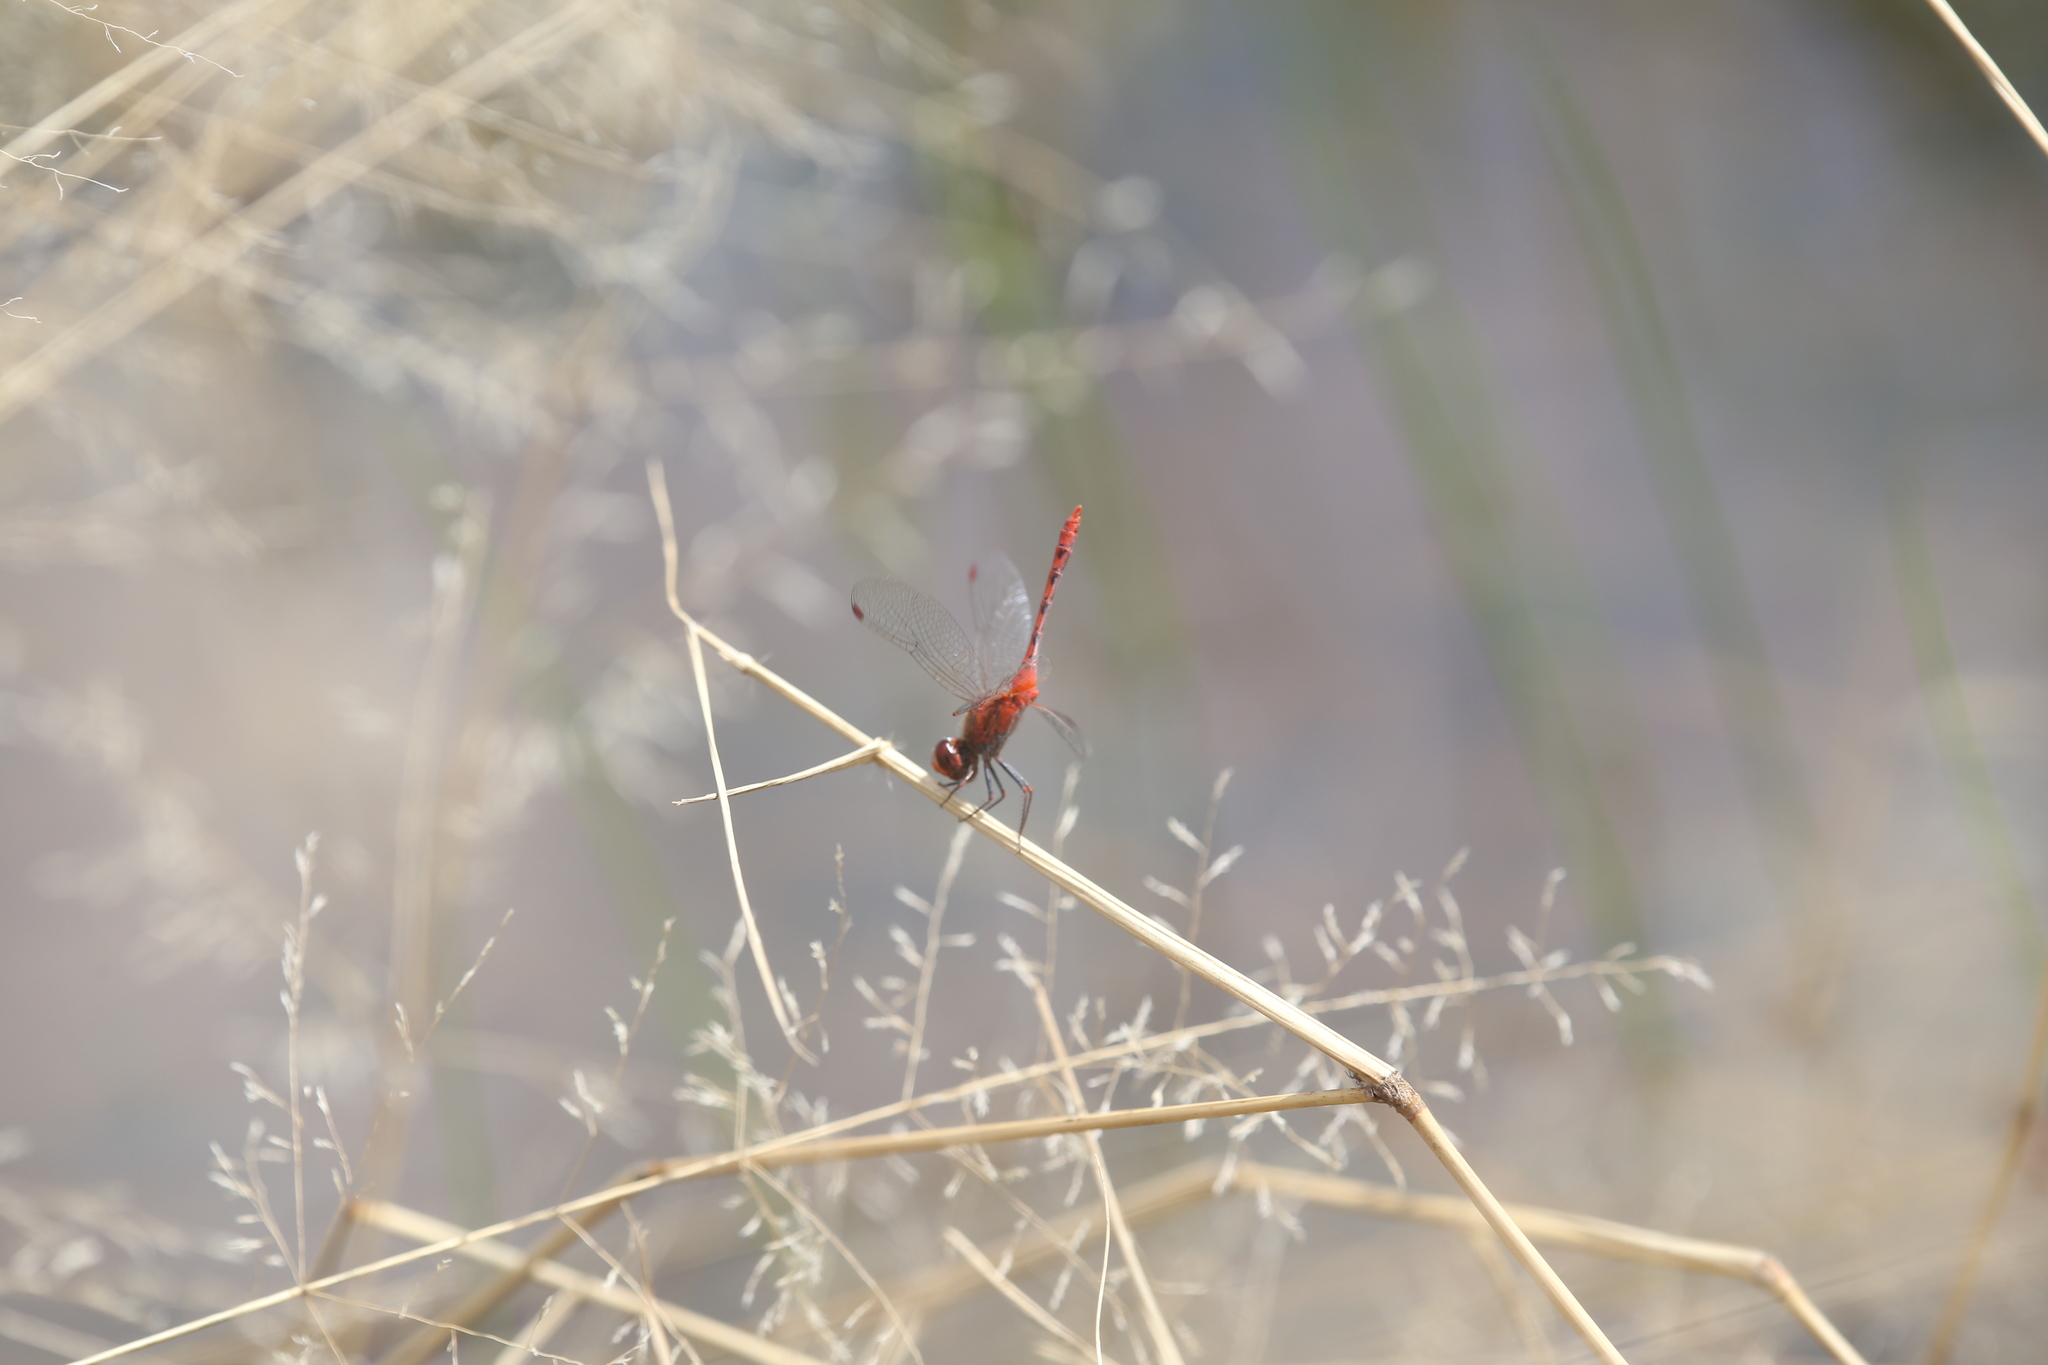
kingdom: Animalia
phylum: Arthropoda
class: Insecta
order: Odonata
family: Libellulidae
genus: Diplacodes
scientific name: Diplacodes bipunctata
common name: Red percher dragonfly
